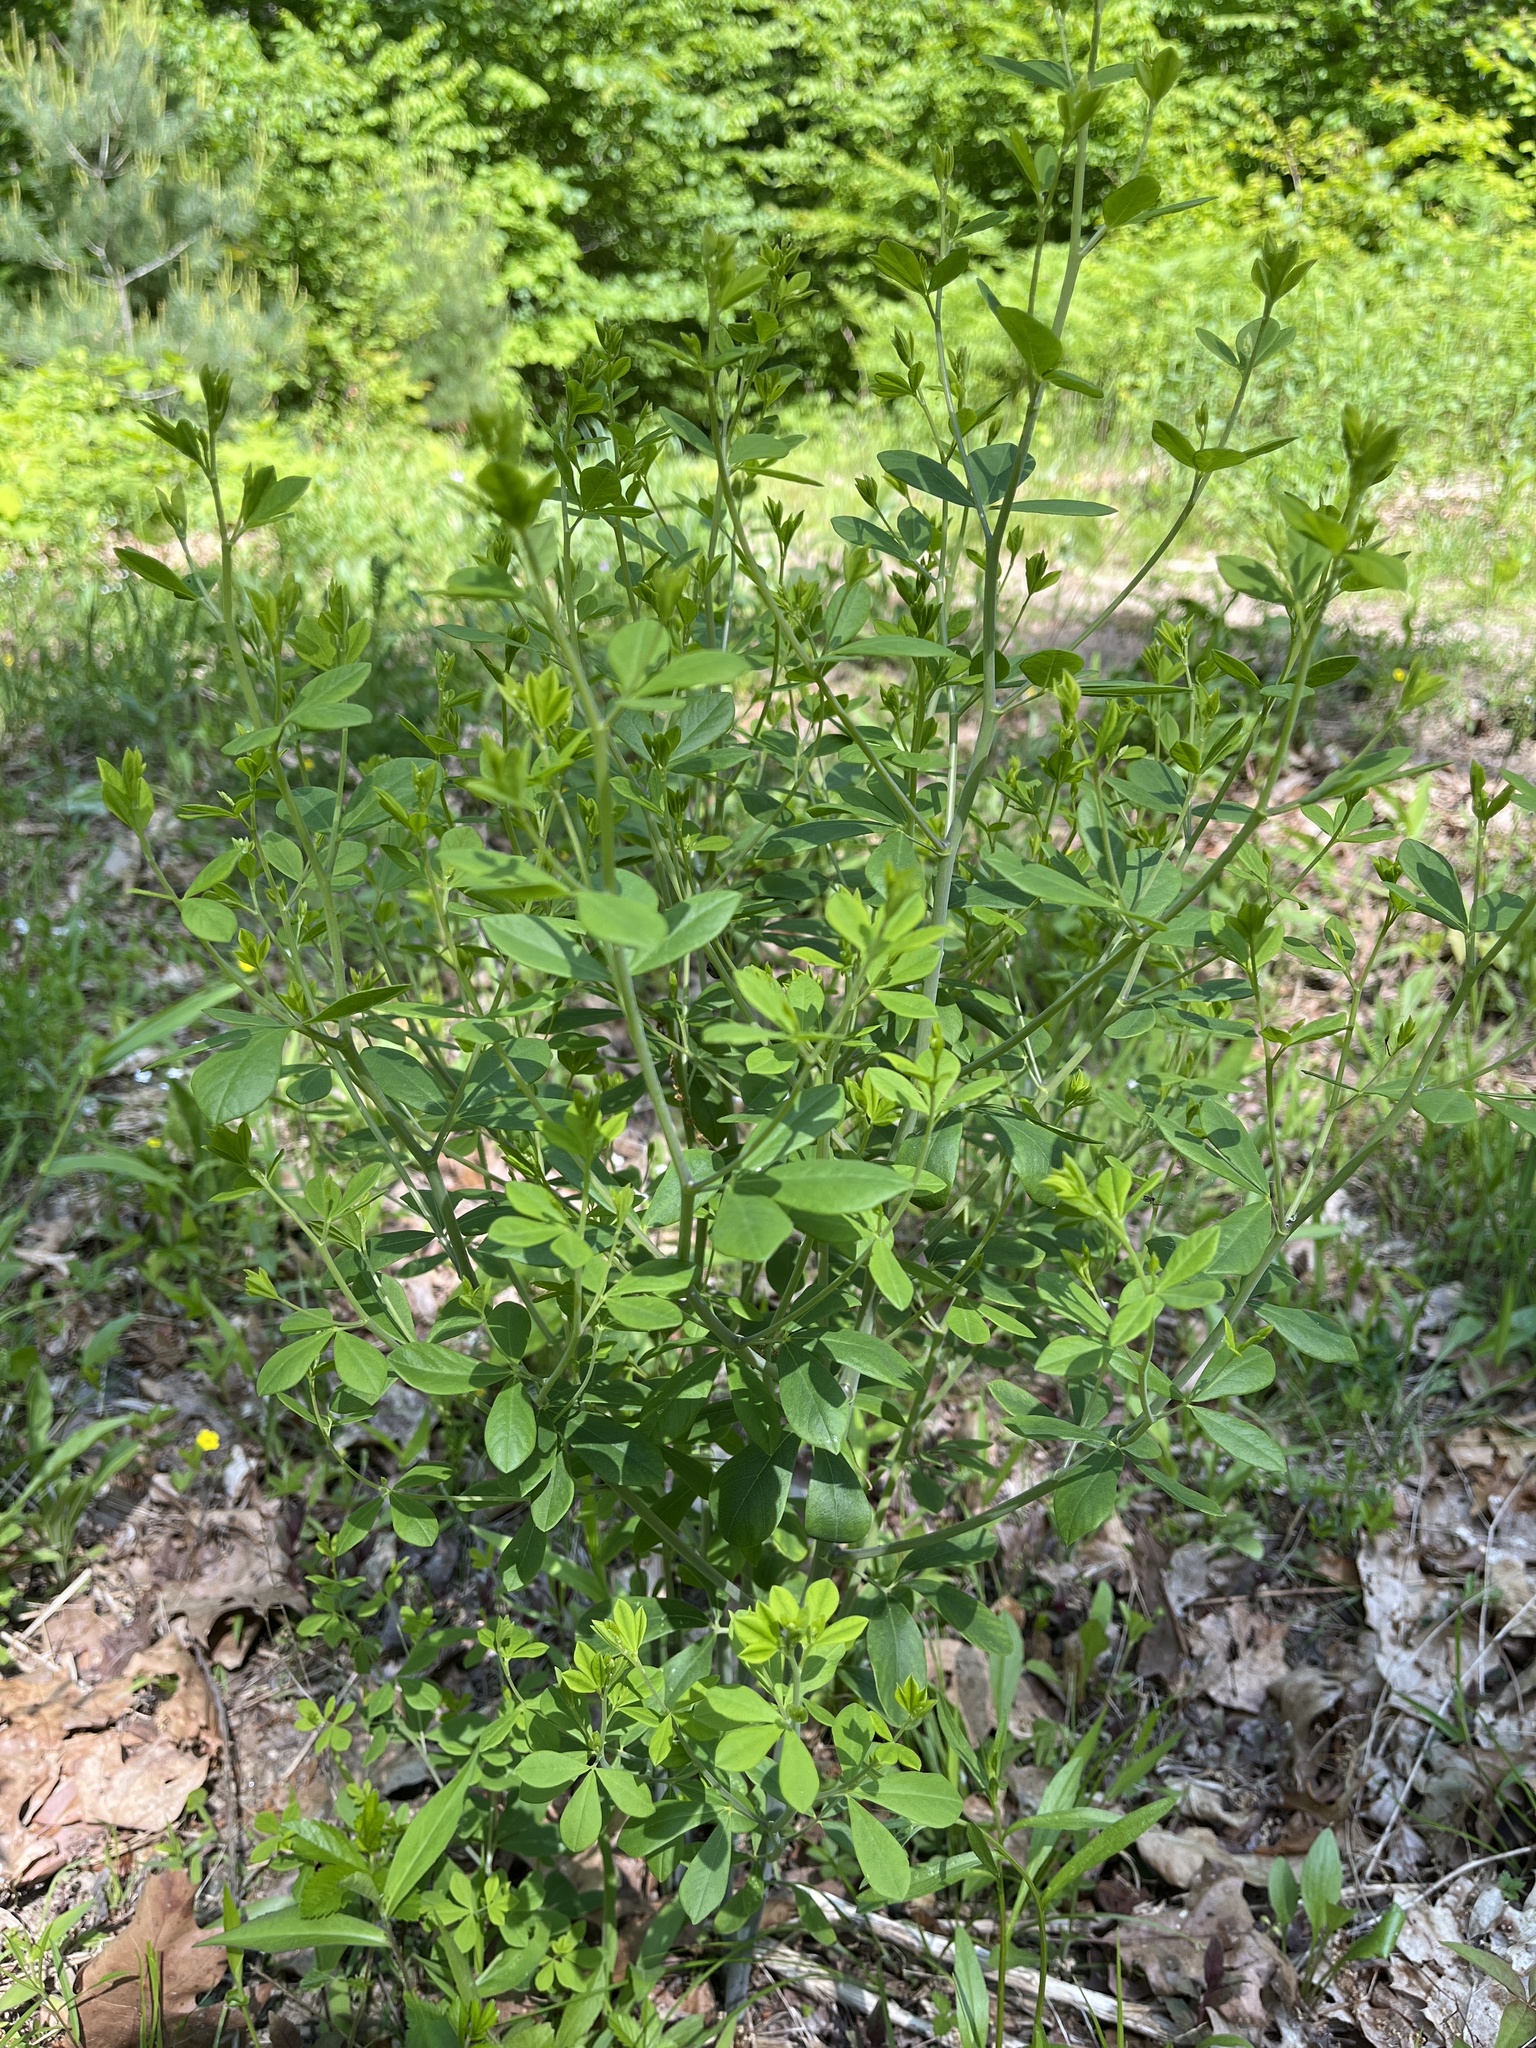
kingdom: Plantae
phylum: Tracheophyta
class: Magnoliopsida
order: Fabales
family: Fabaceae
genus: Baptisia
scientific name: Baptisia tinctoria
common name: Wild indigo
